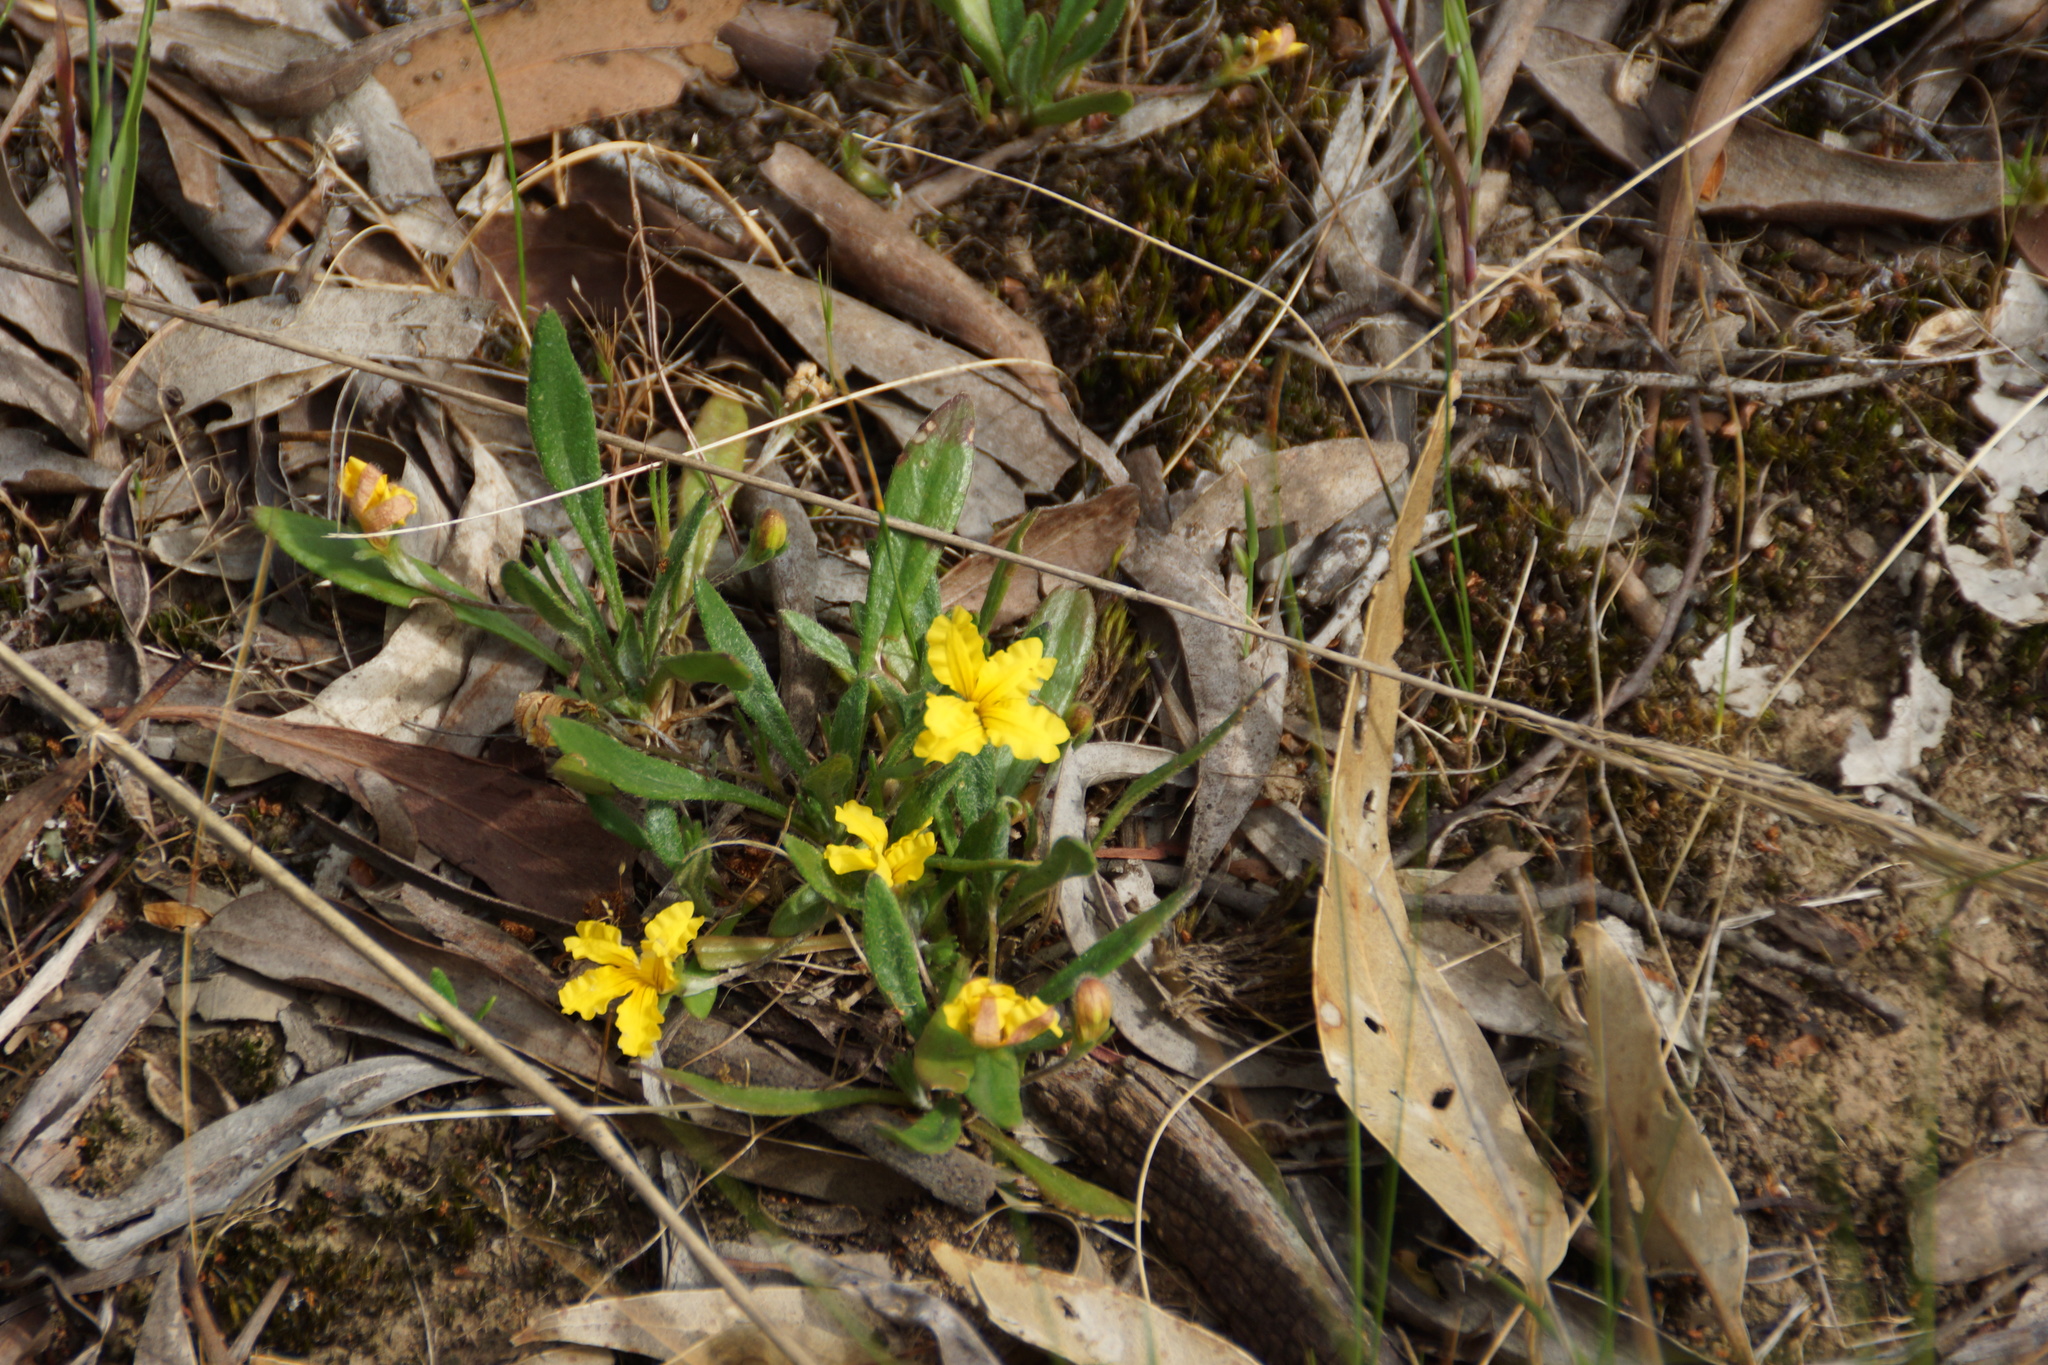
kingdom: Plantae
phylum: Tracheophyta
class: Magnoliopsida
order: Asterales
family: Goodeniaceae
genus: Goodenia
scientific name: Goodenia geniculata
